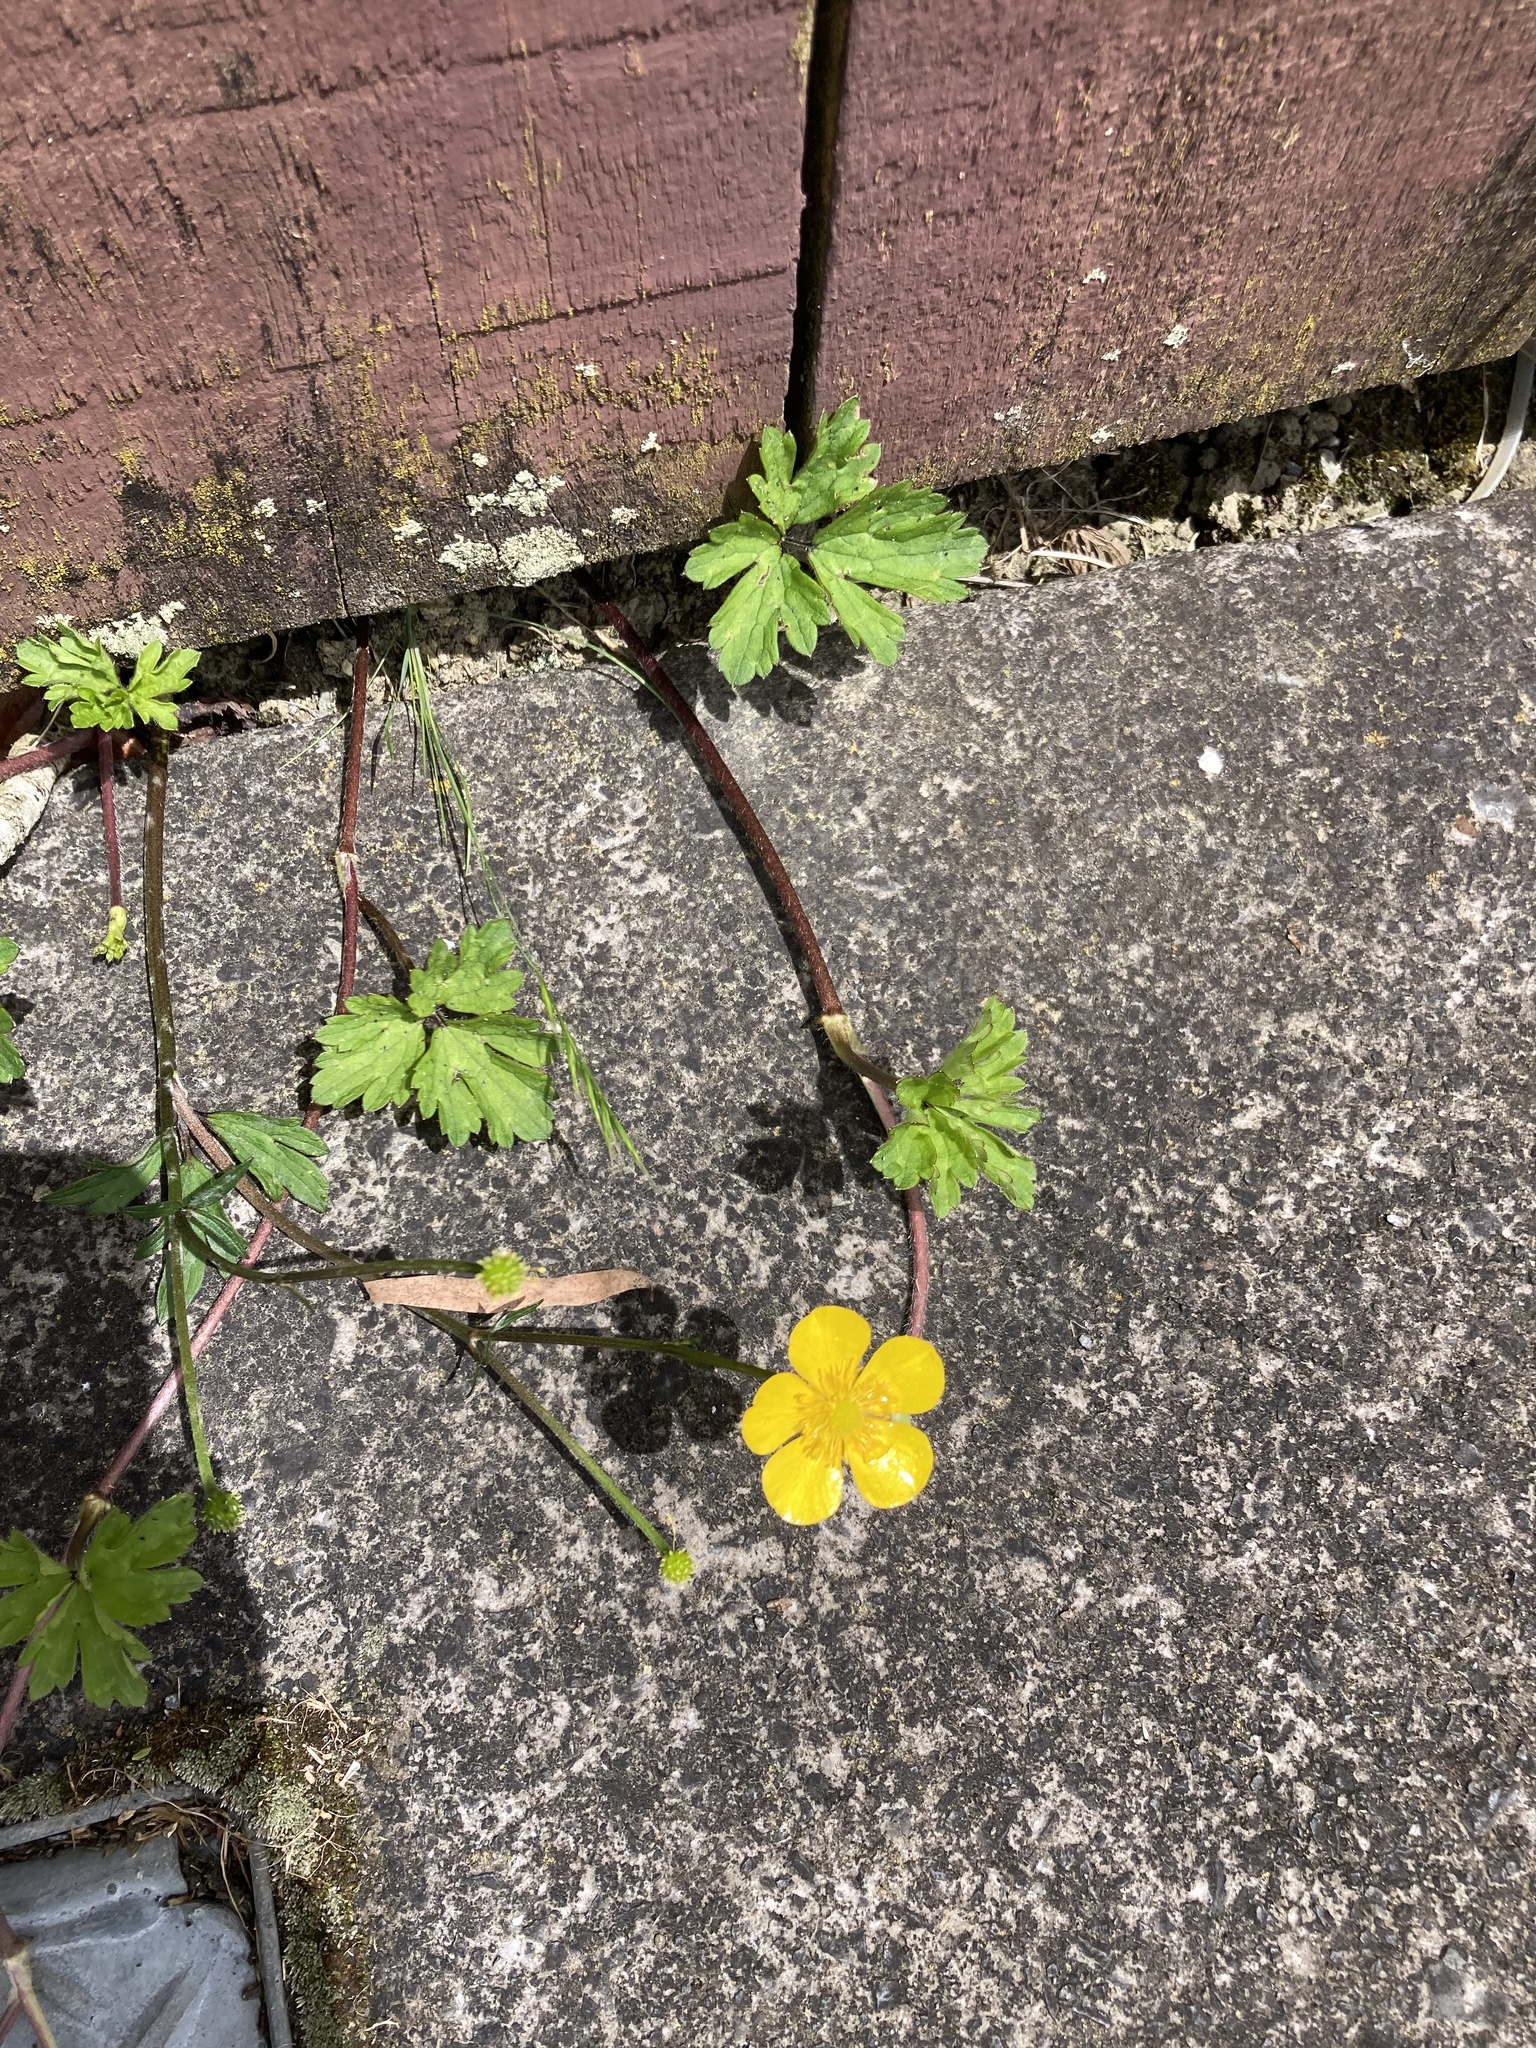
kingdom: Plantae
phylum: Tracheophyta
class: Magnoliopsida
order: Ranunculales
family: Ranunculaceae
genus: Ranunculus
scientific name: Ranunculus repens
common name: Creeping buttercup
